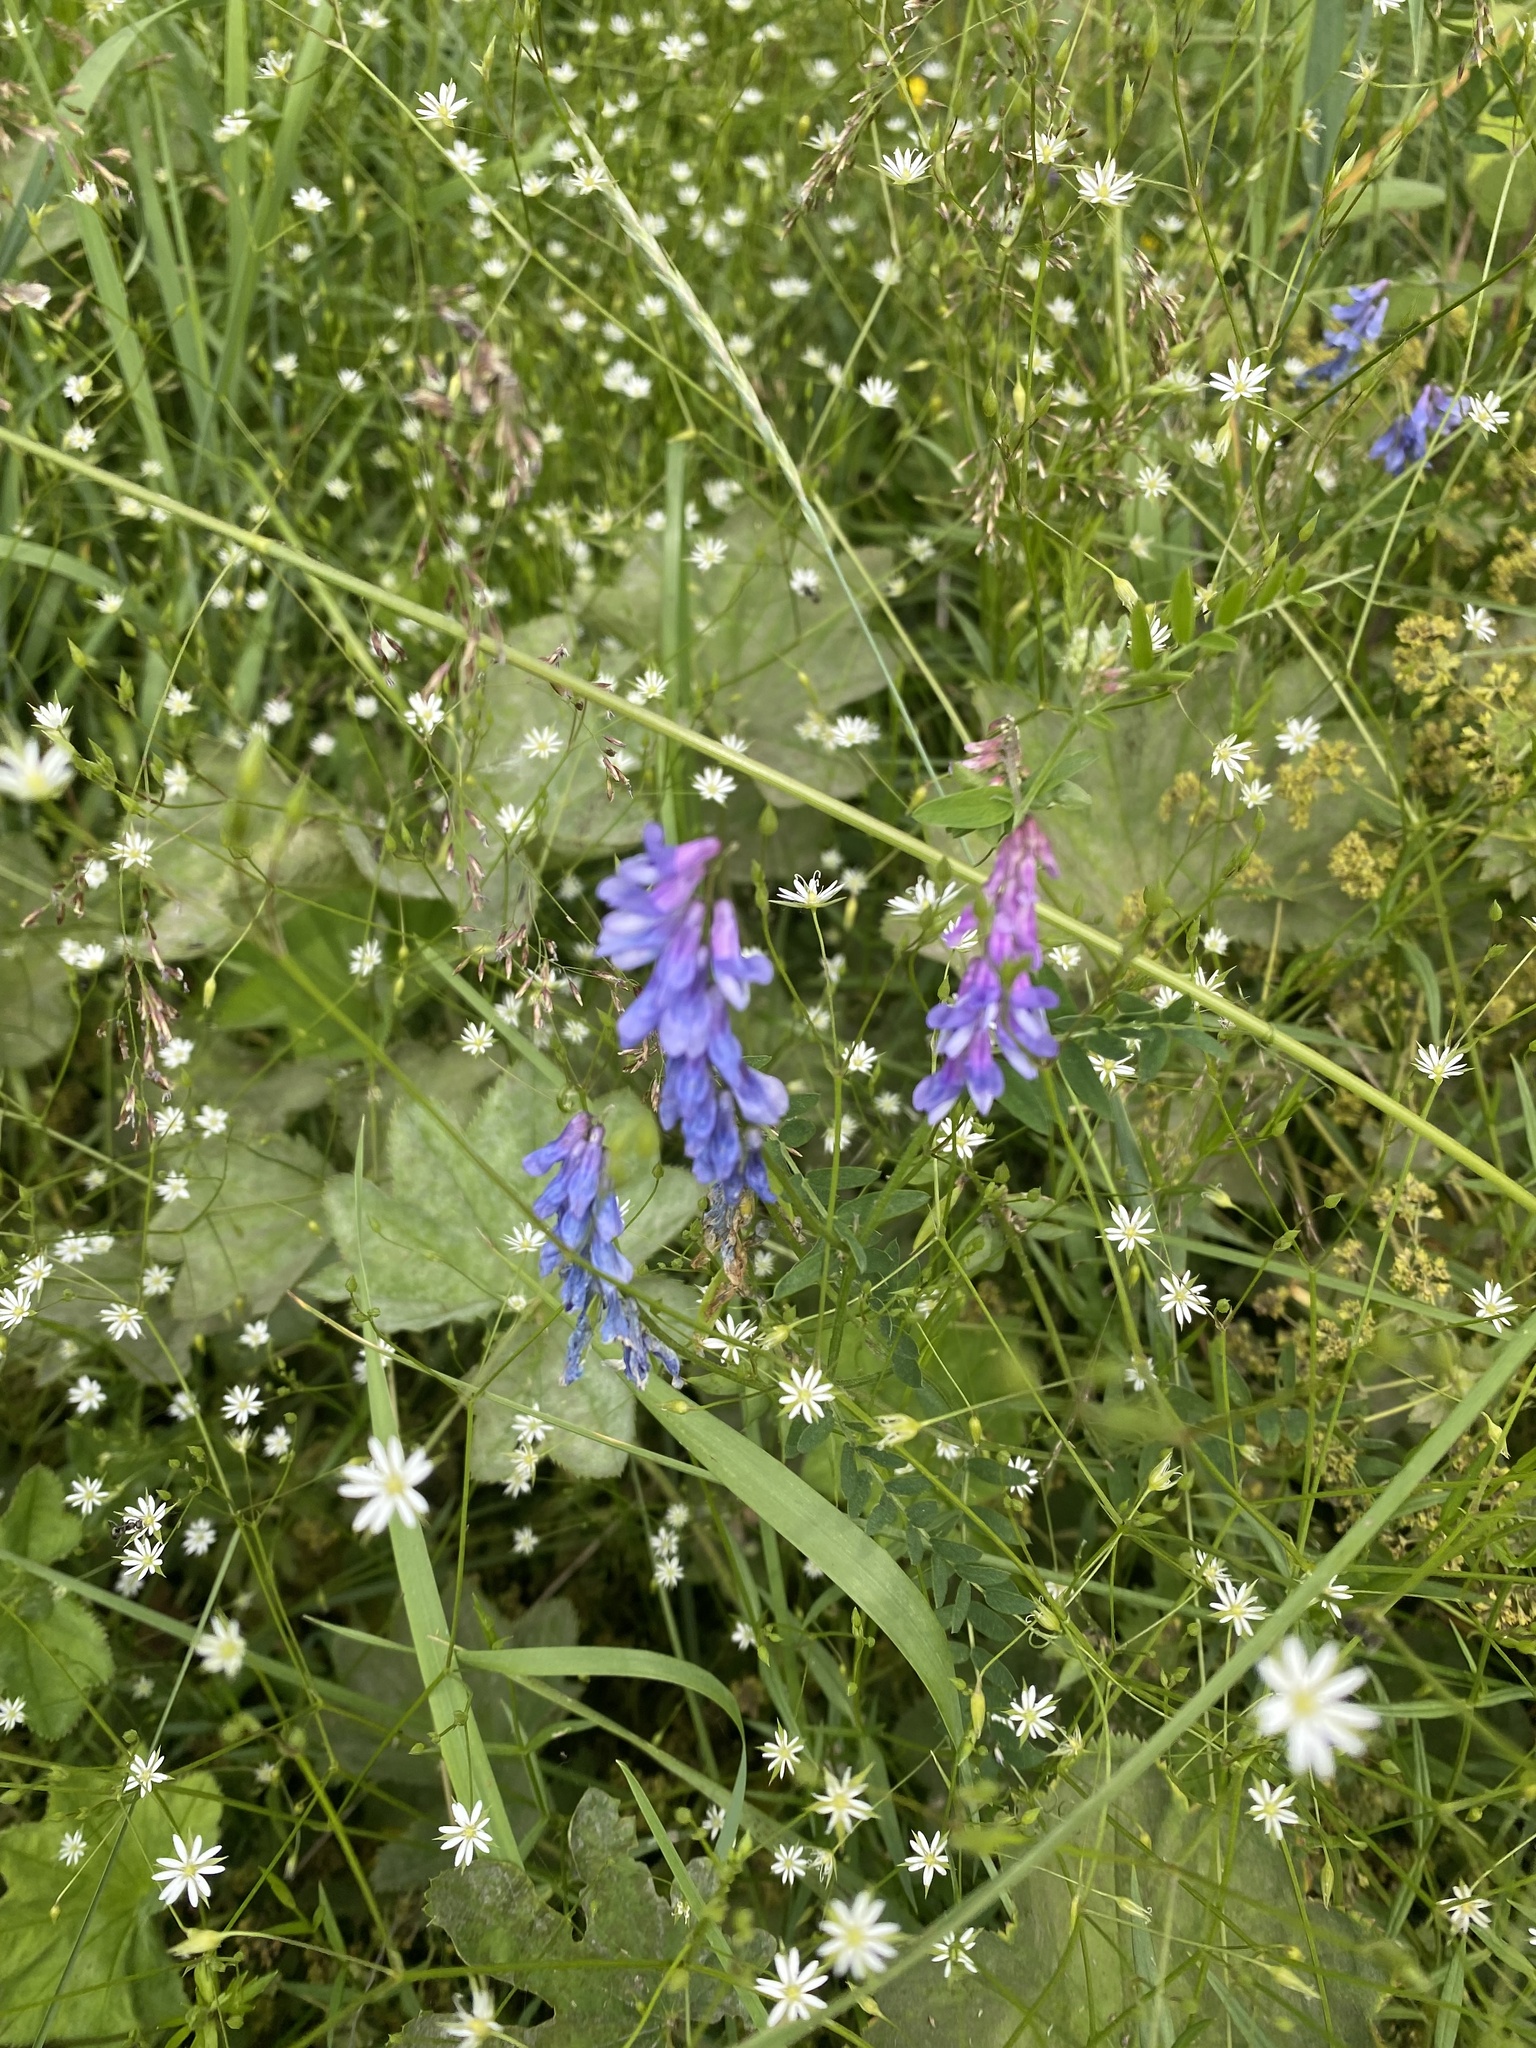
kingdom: Plantae
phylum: Tracheophyta
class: Magnoliopsida
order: Fabales
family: Fabaceae
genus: Vicia
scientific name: Vicia cracca
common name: Bird vetch
